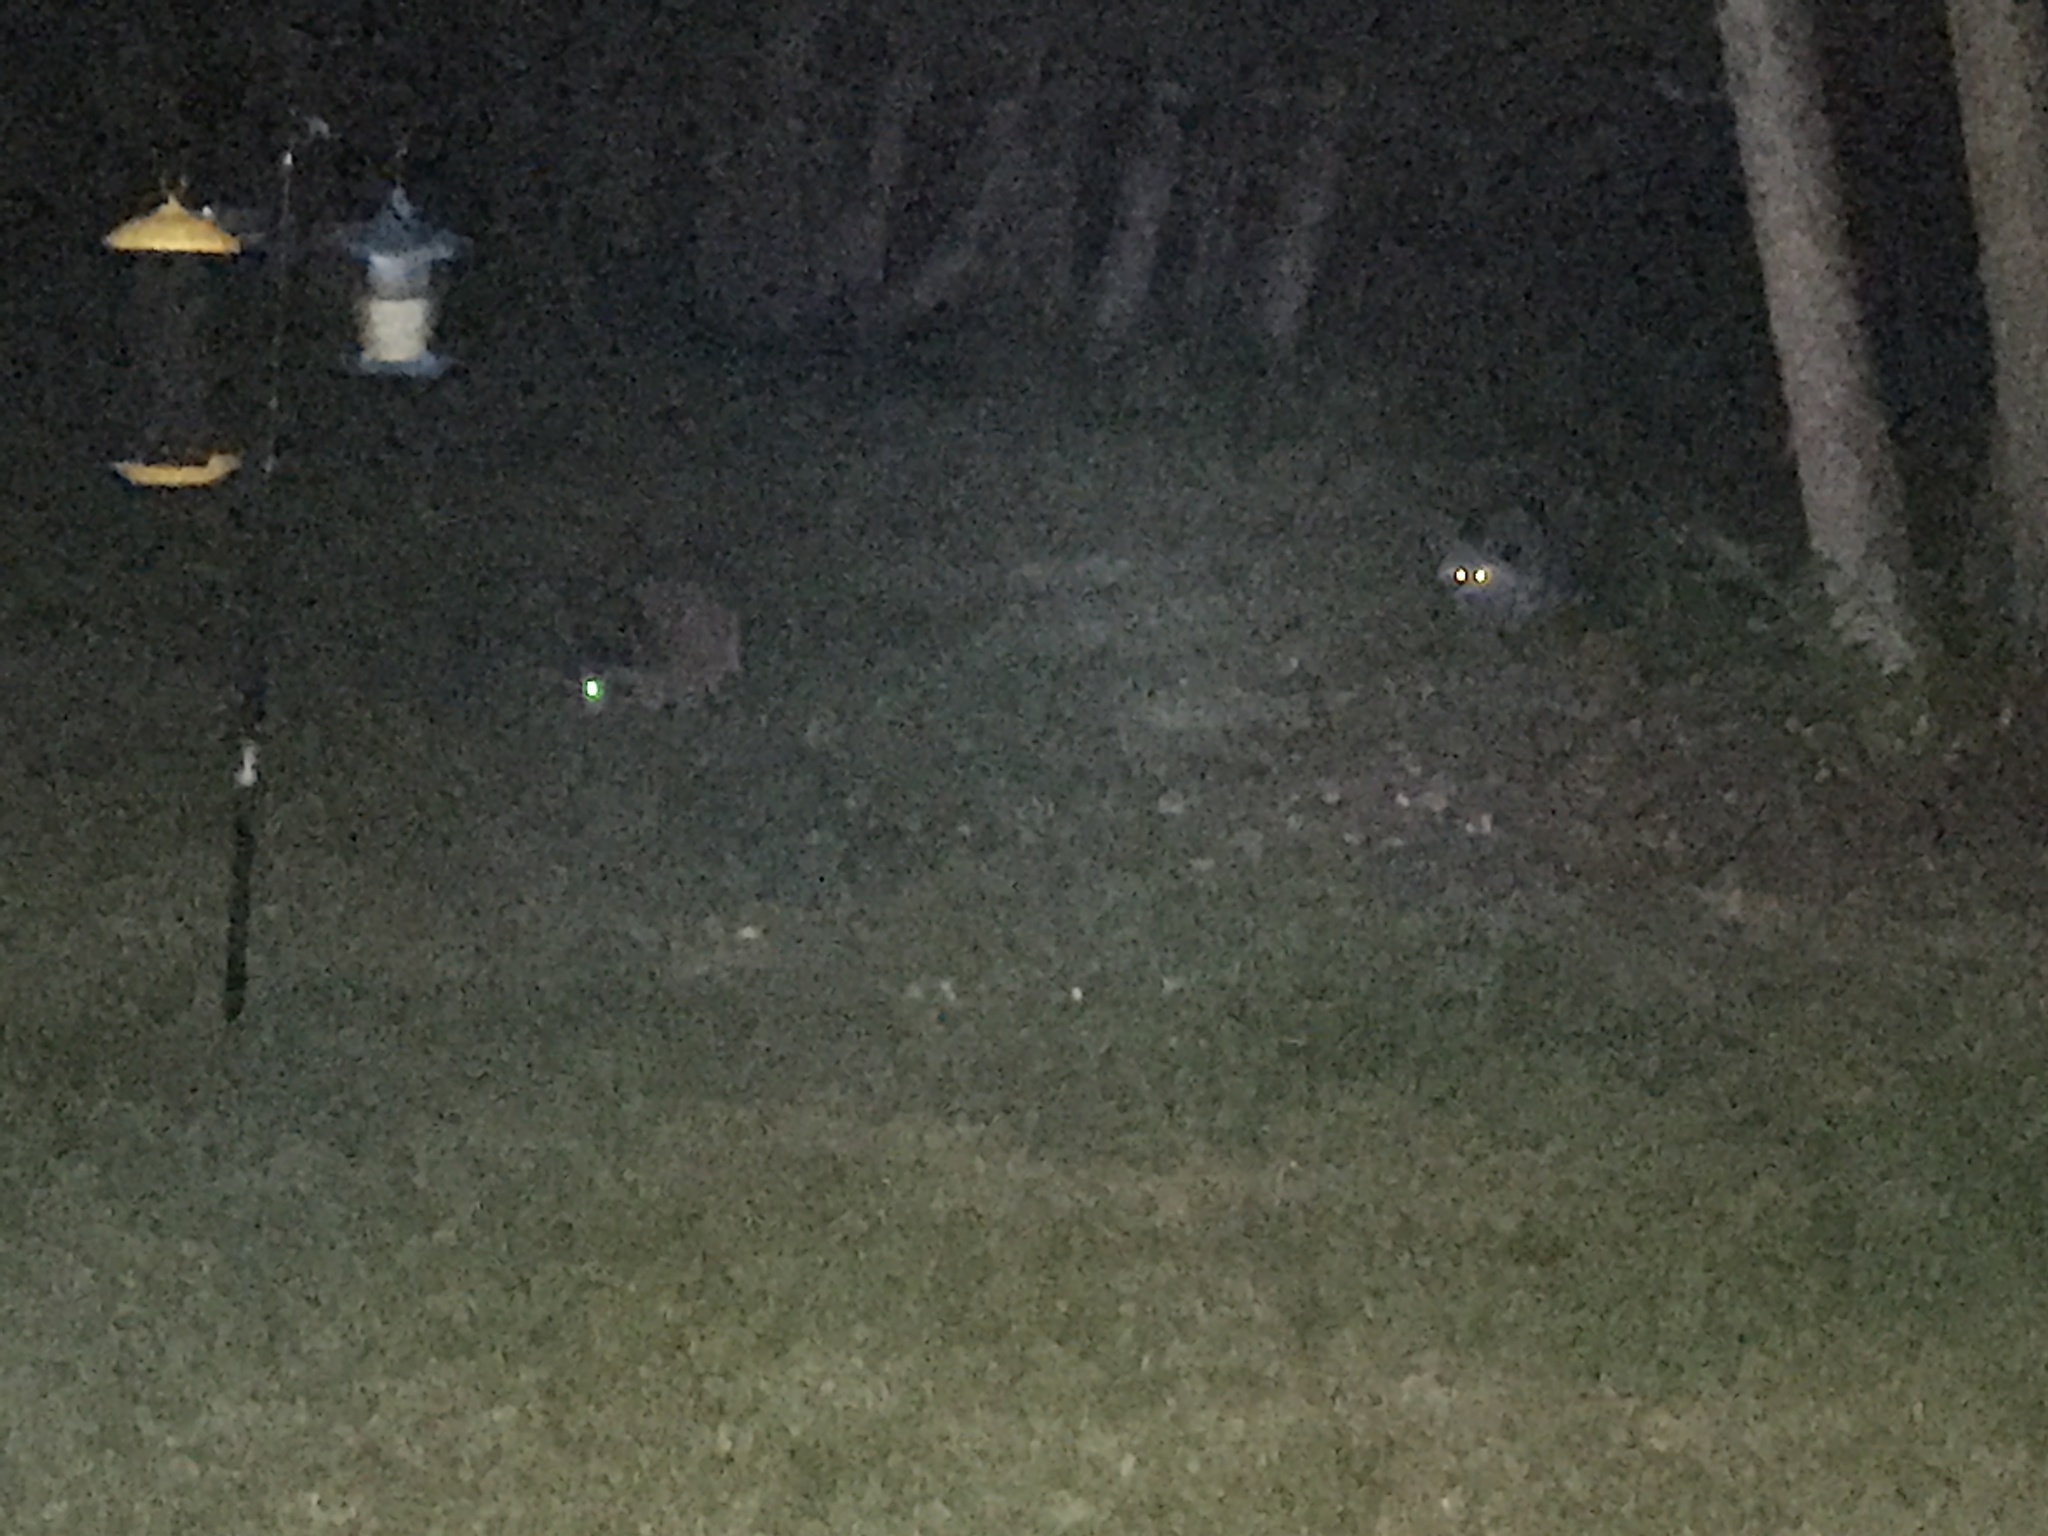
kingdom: Animalia
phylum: Chordata
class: Mammalia
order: Carnivora
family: Procyonidae
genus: Procyon
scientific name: Procyon lotor
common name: Raccoon
